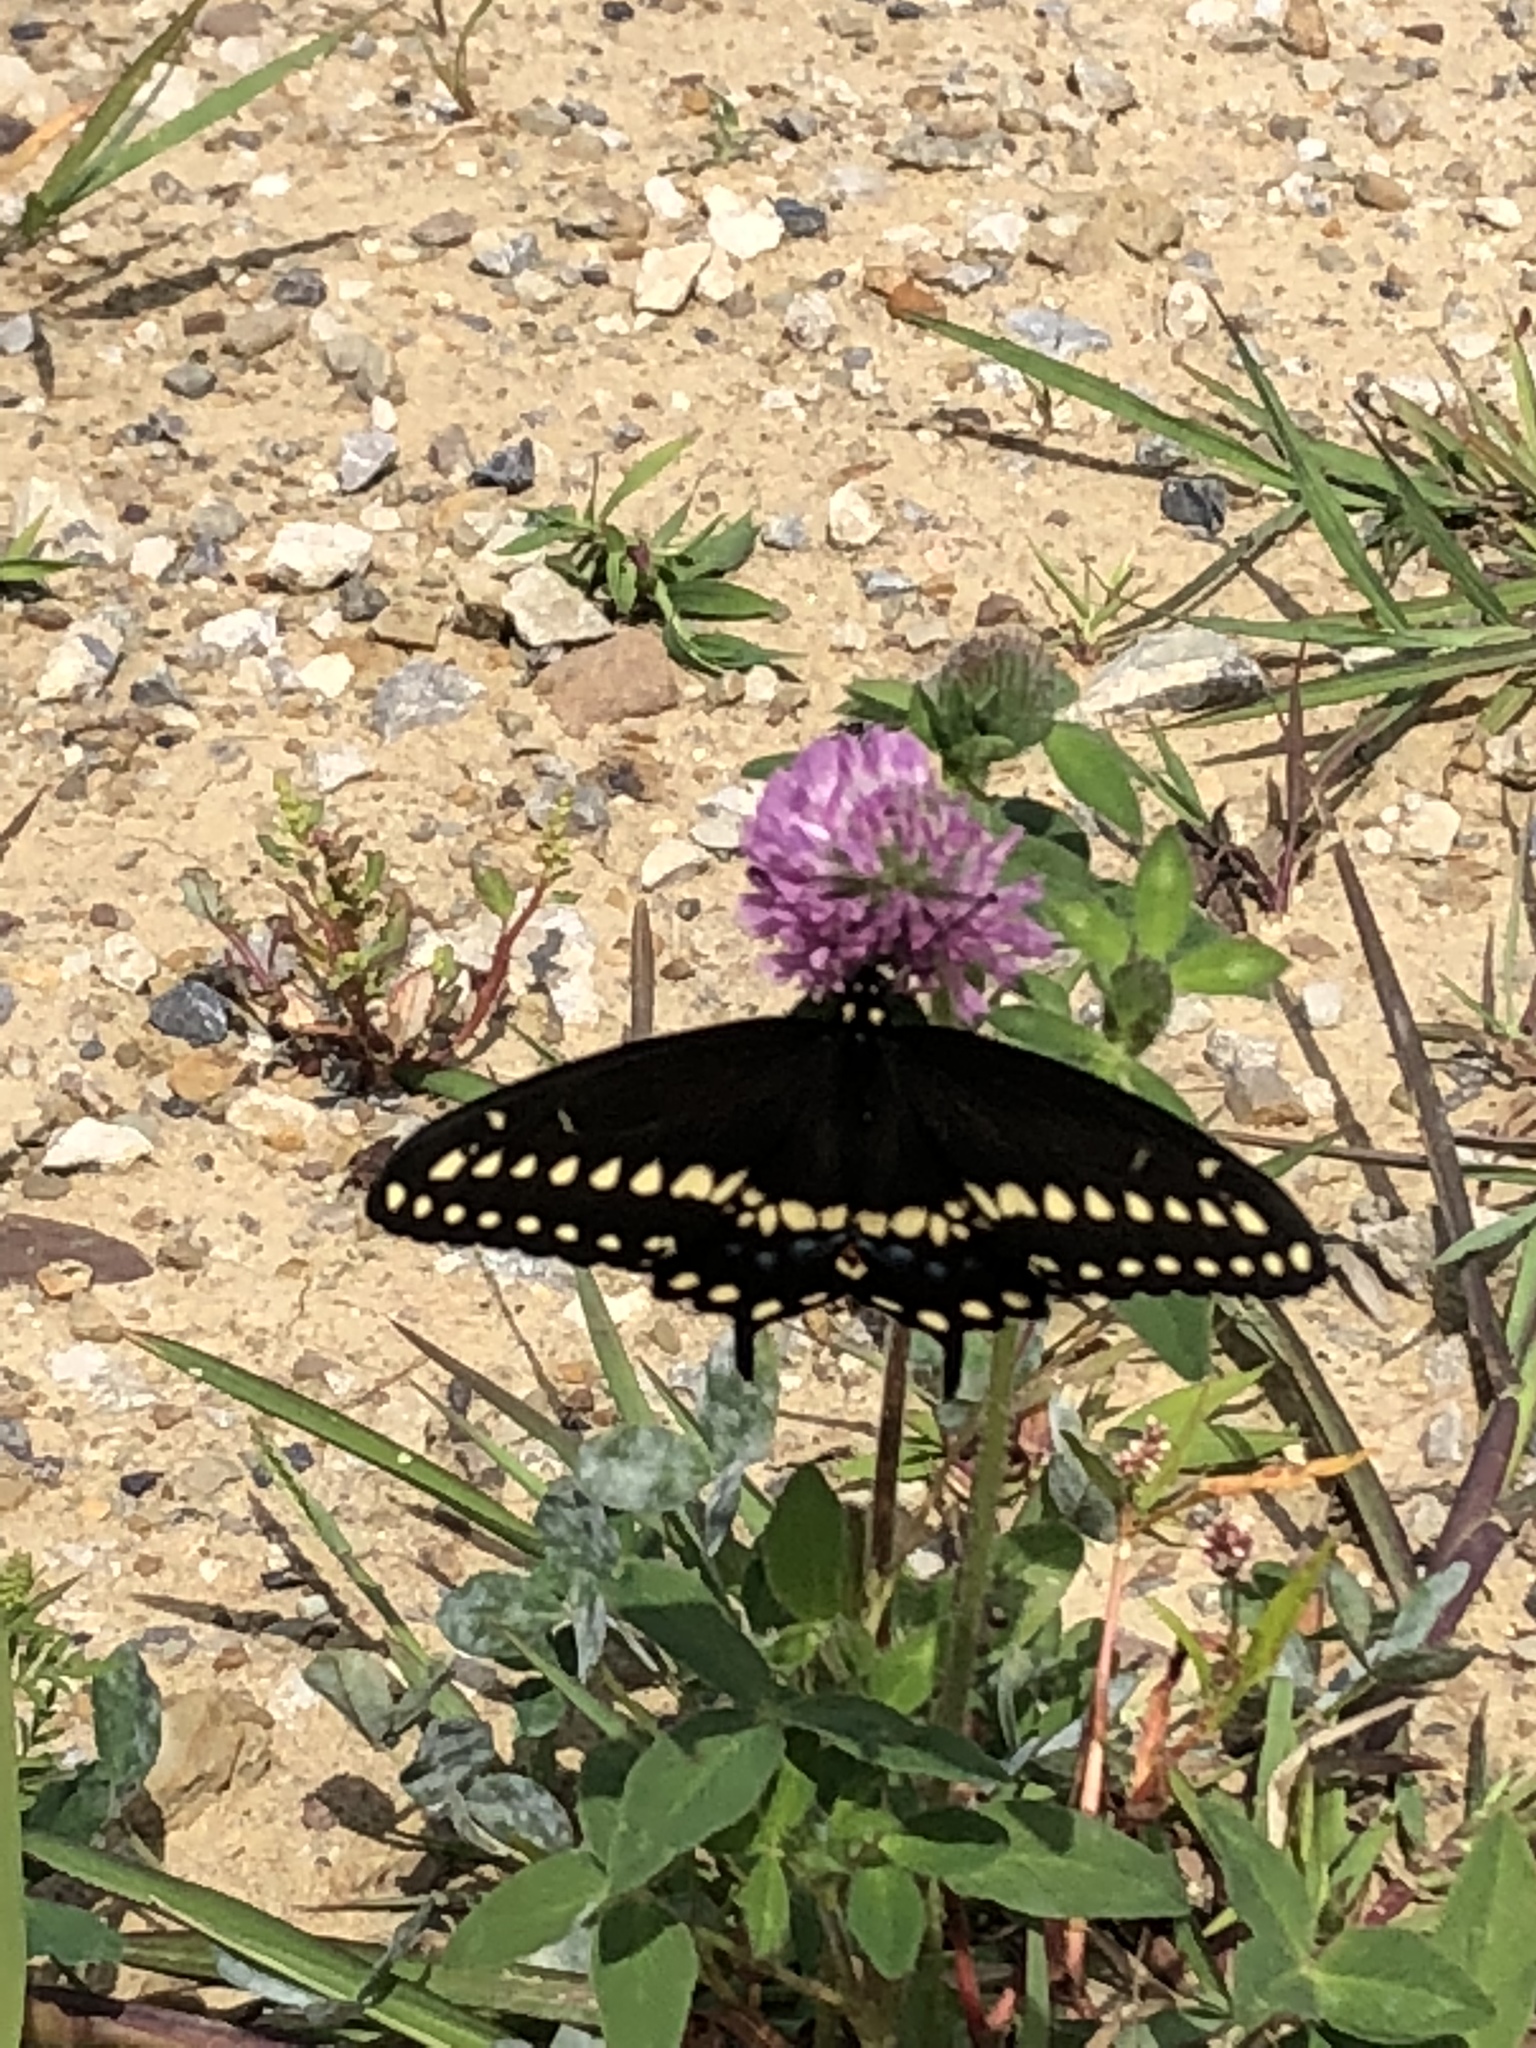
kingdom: Animalia
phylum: Arthropoda
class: Insecta
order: Lepidoptera
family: Papilionidae
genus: Papilio
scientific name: Papilio polyxenes
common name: Black swallowtail
